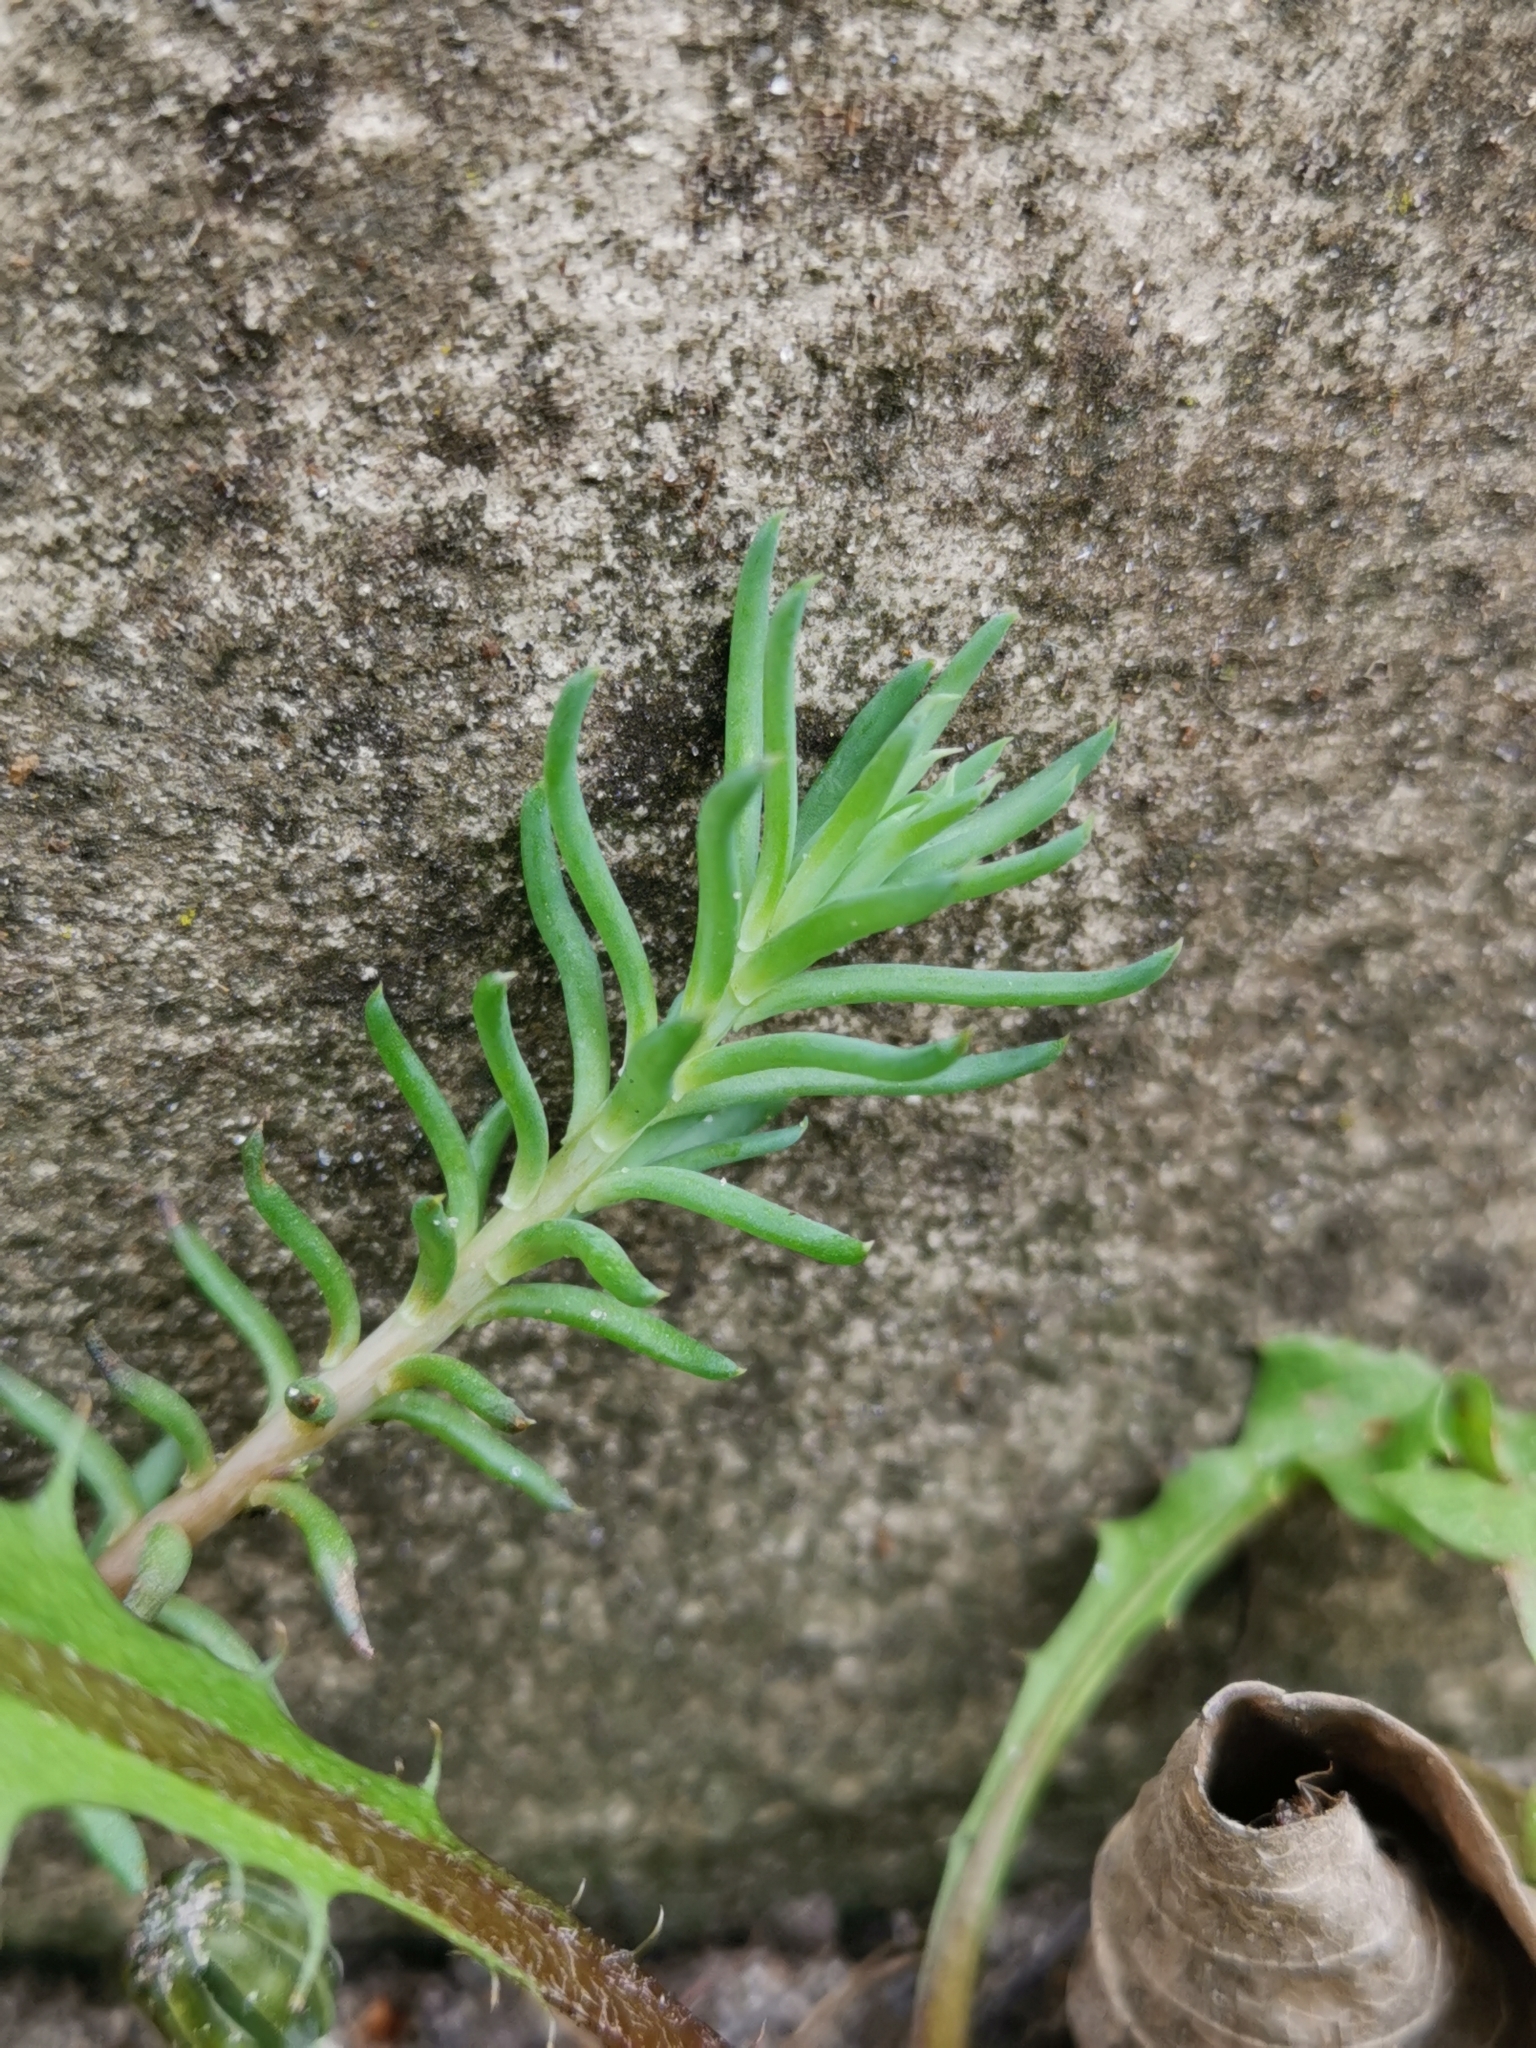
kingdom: Plantae
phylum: Tracheophyta
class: Magnoliopsida
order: Saxifragales
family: Crassulaceae
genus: Petrosedum
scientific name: Petrosedum rupestre
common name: Jenny's stonecrop
